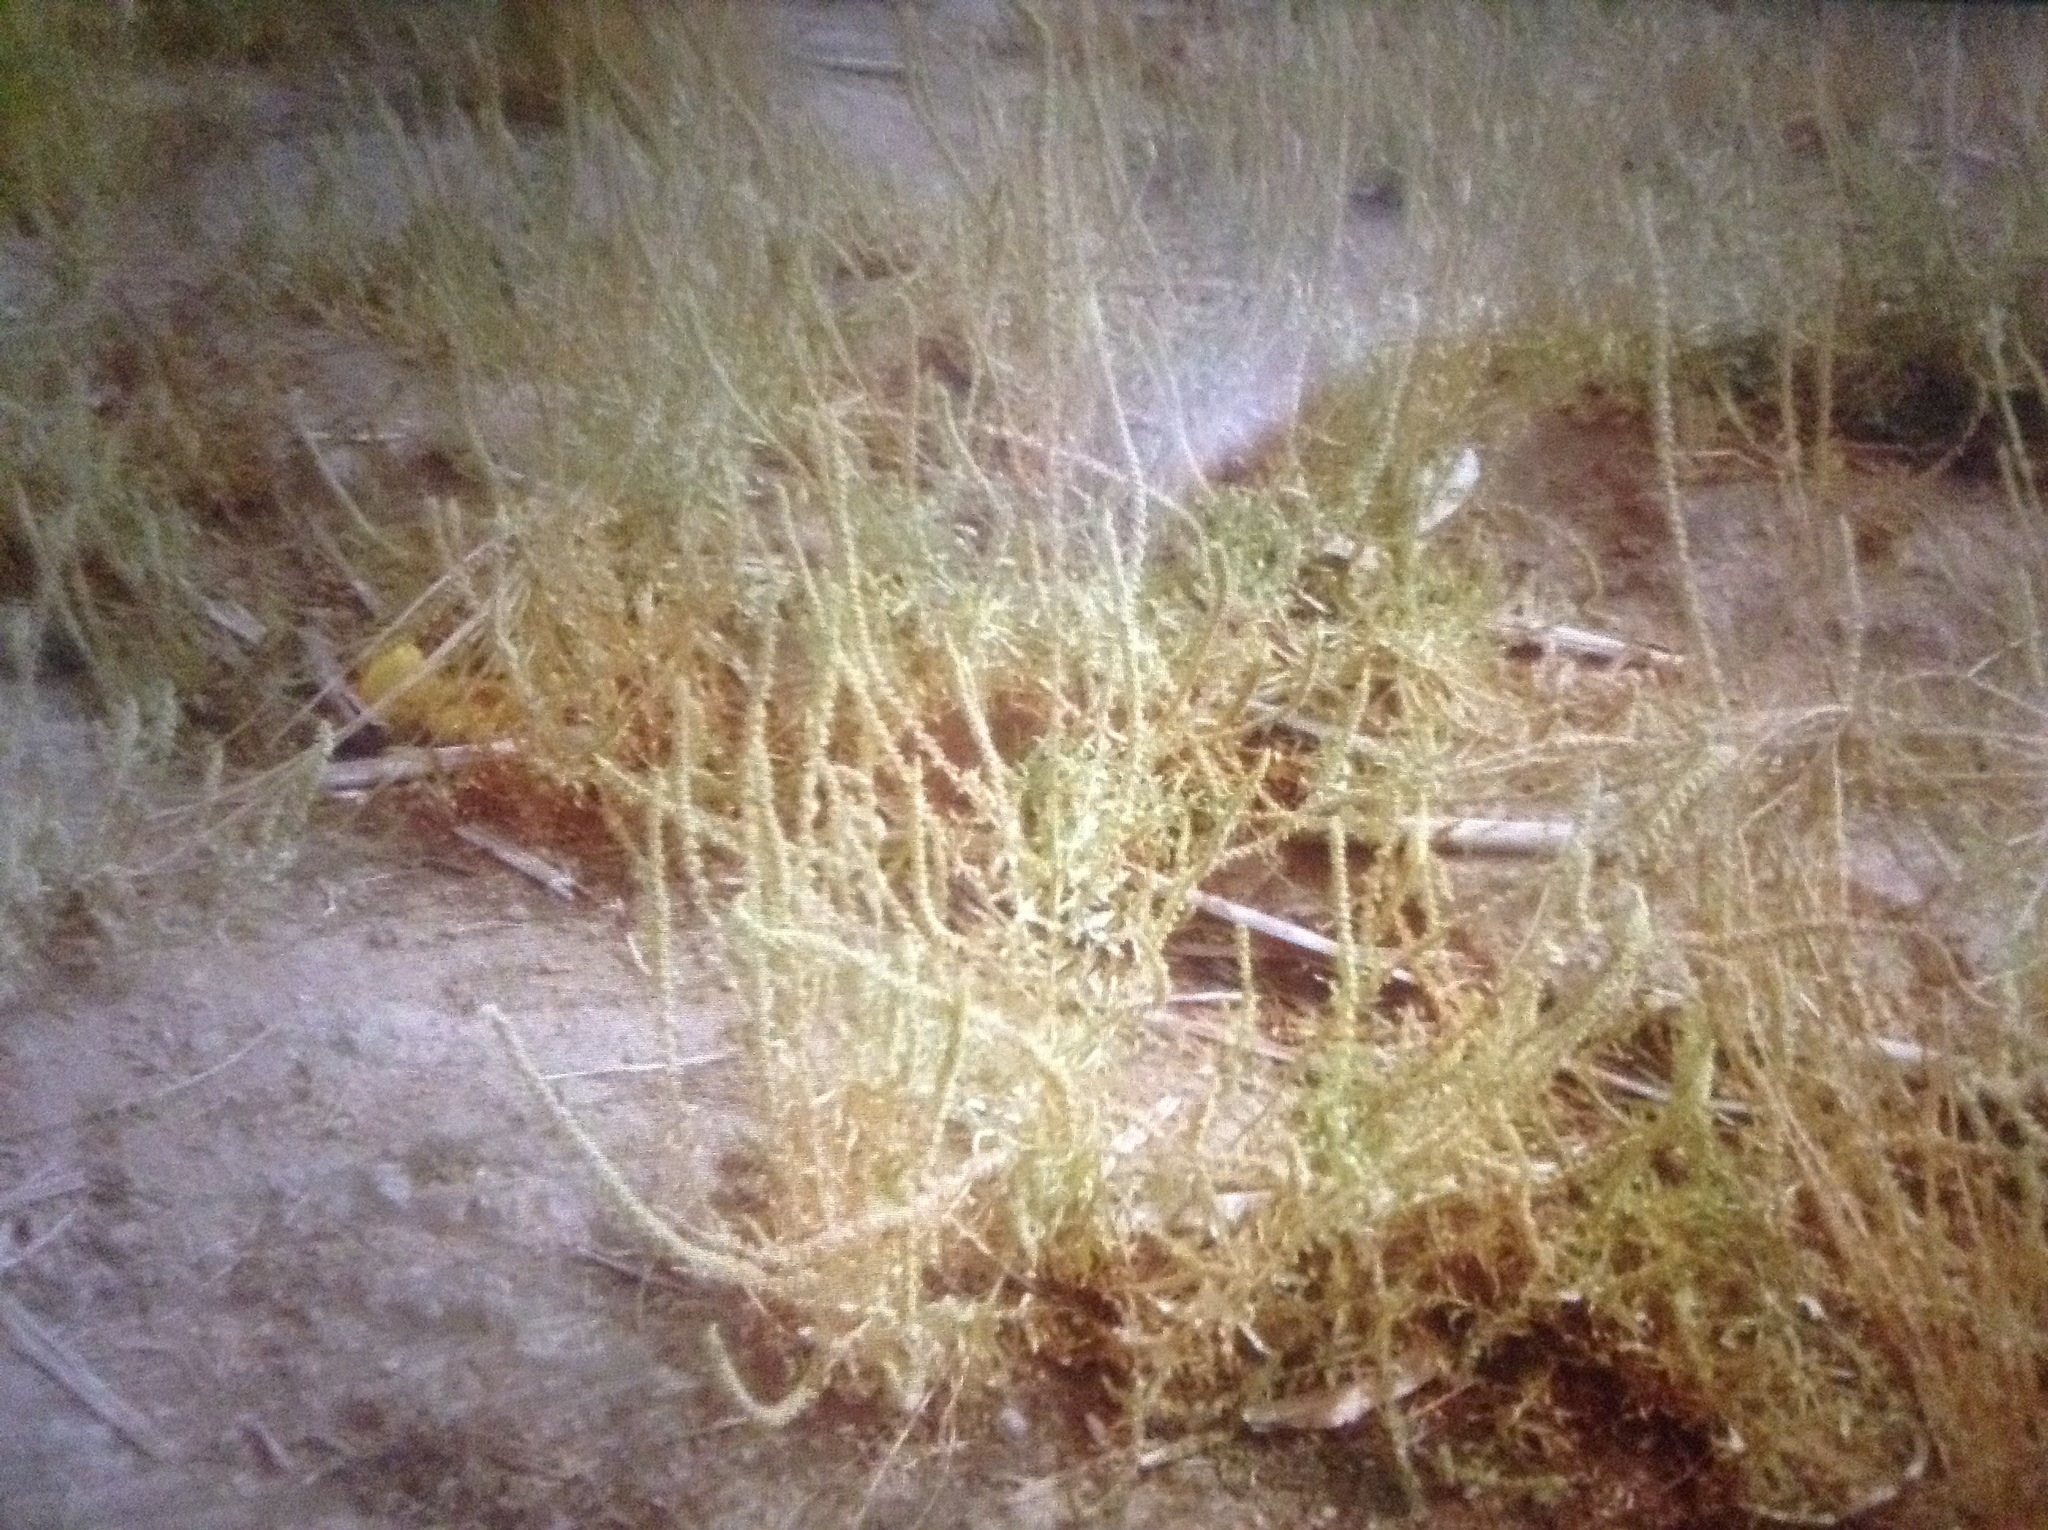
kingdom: Plantae
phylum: Tracheophyta
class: Magnoliopsida
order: Brassicales
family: Resedaceae
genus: Reseda
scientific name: Reseda luteola
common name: Weld
